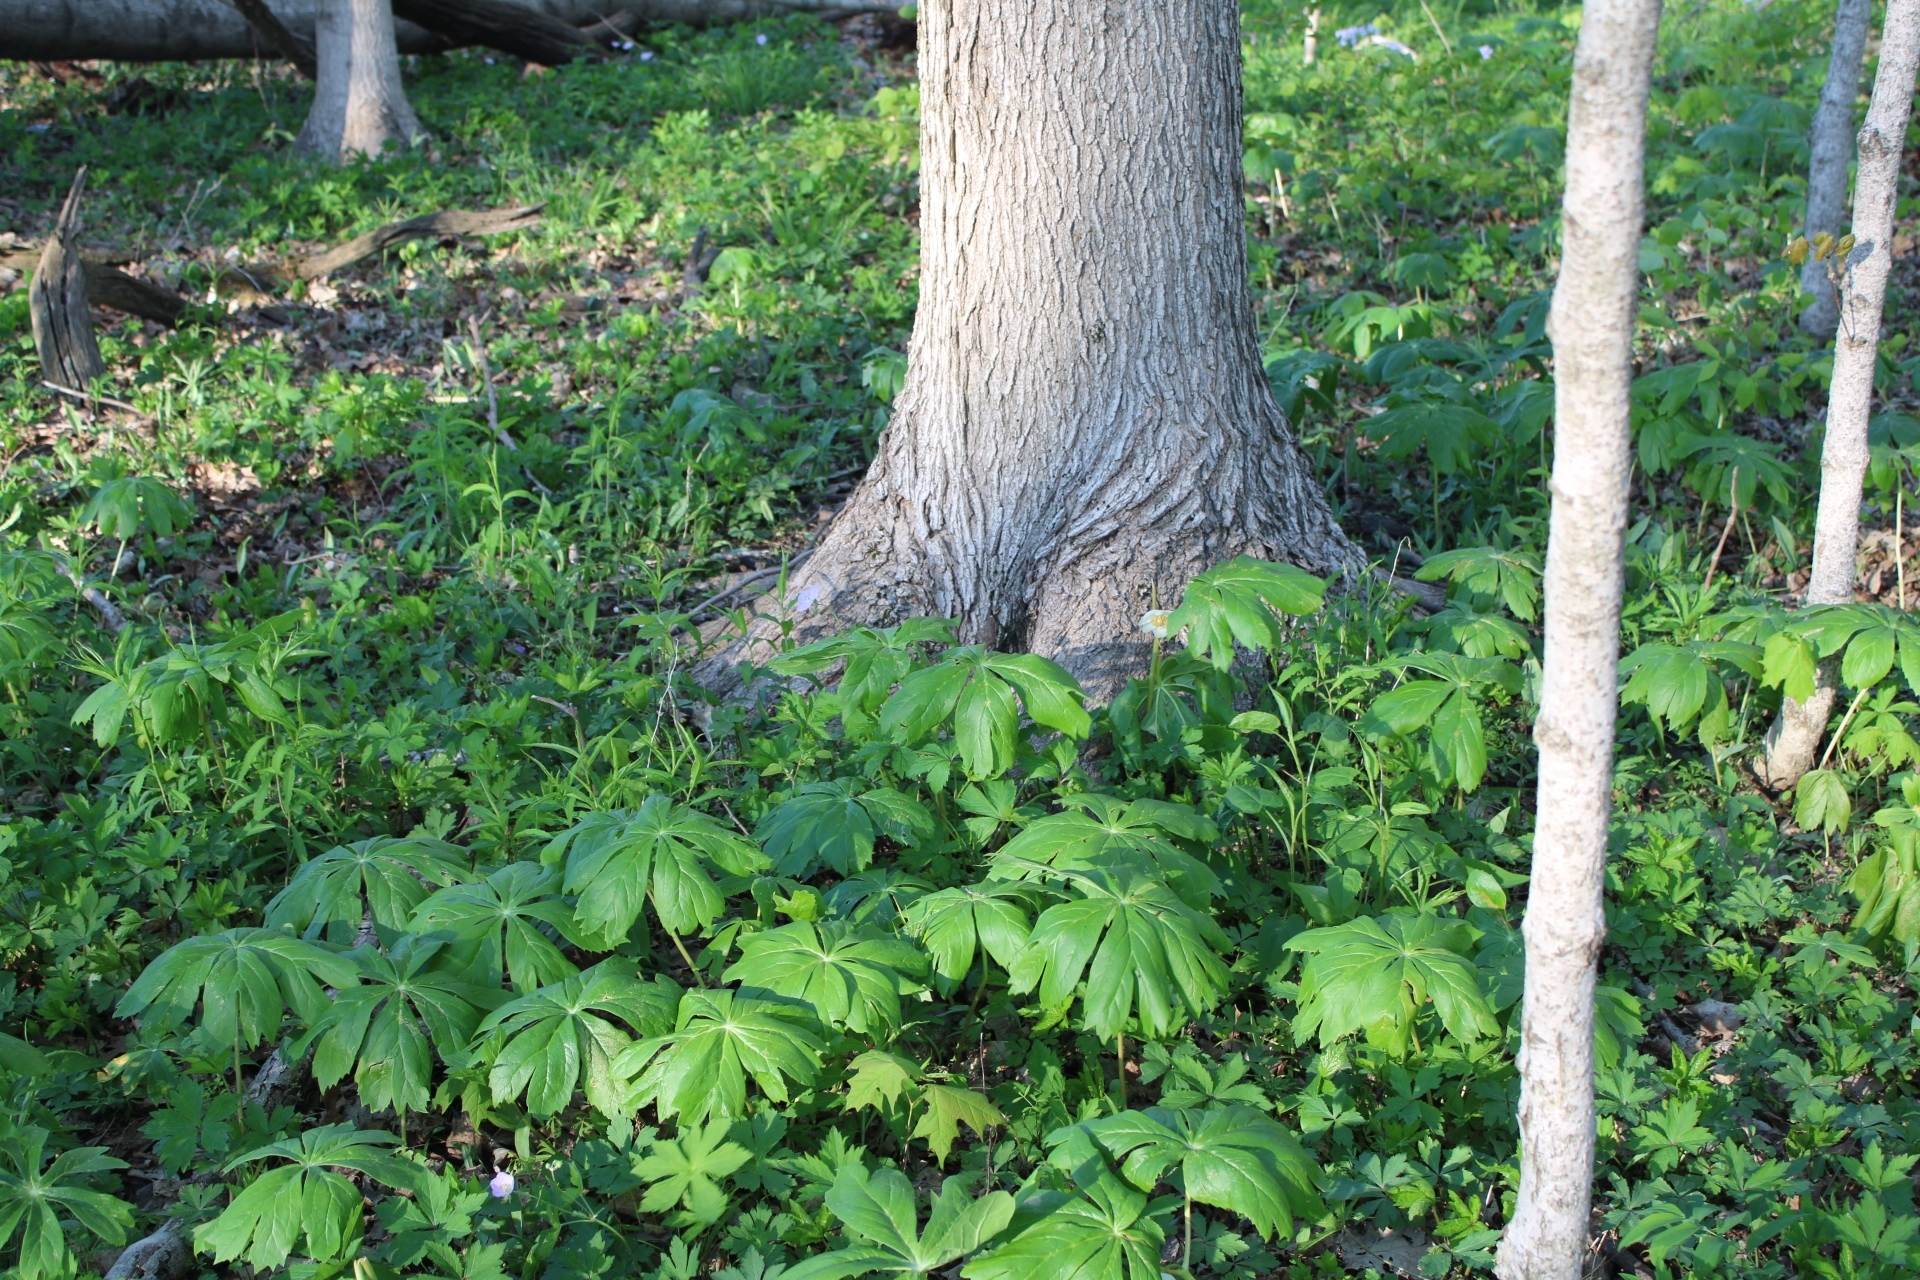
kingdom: Plantae
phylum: Tracheophyta
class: Magnoliopsida
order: Ranunculales
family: Berberidaceae
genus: Podophyllum
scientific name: Podophyllum peltatum
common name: Wild mandrake
